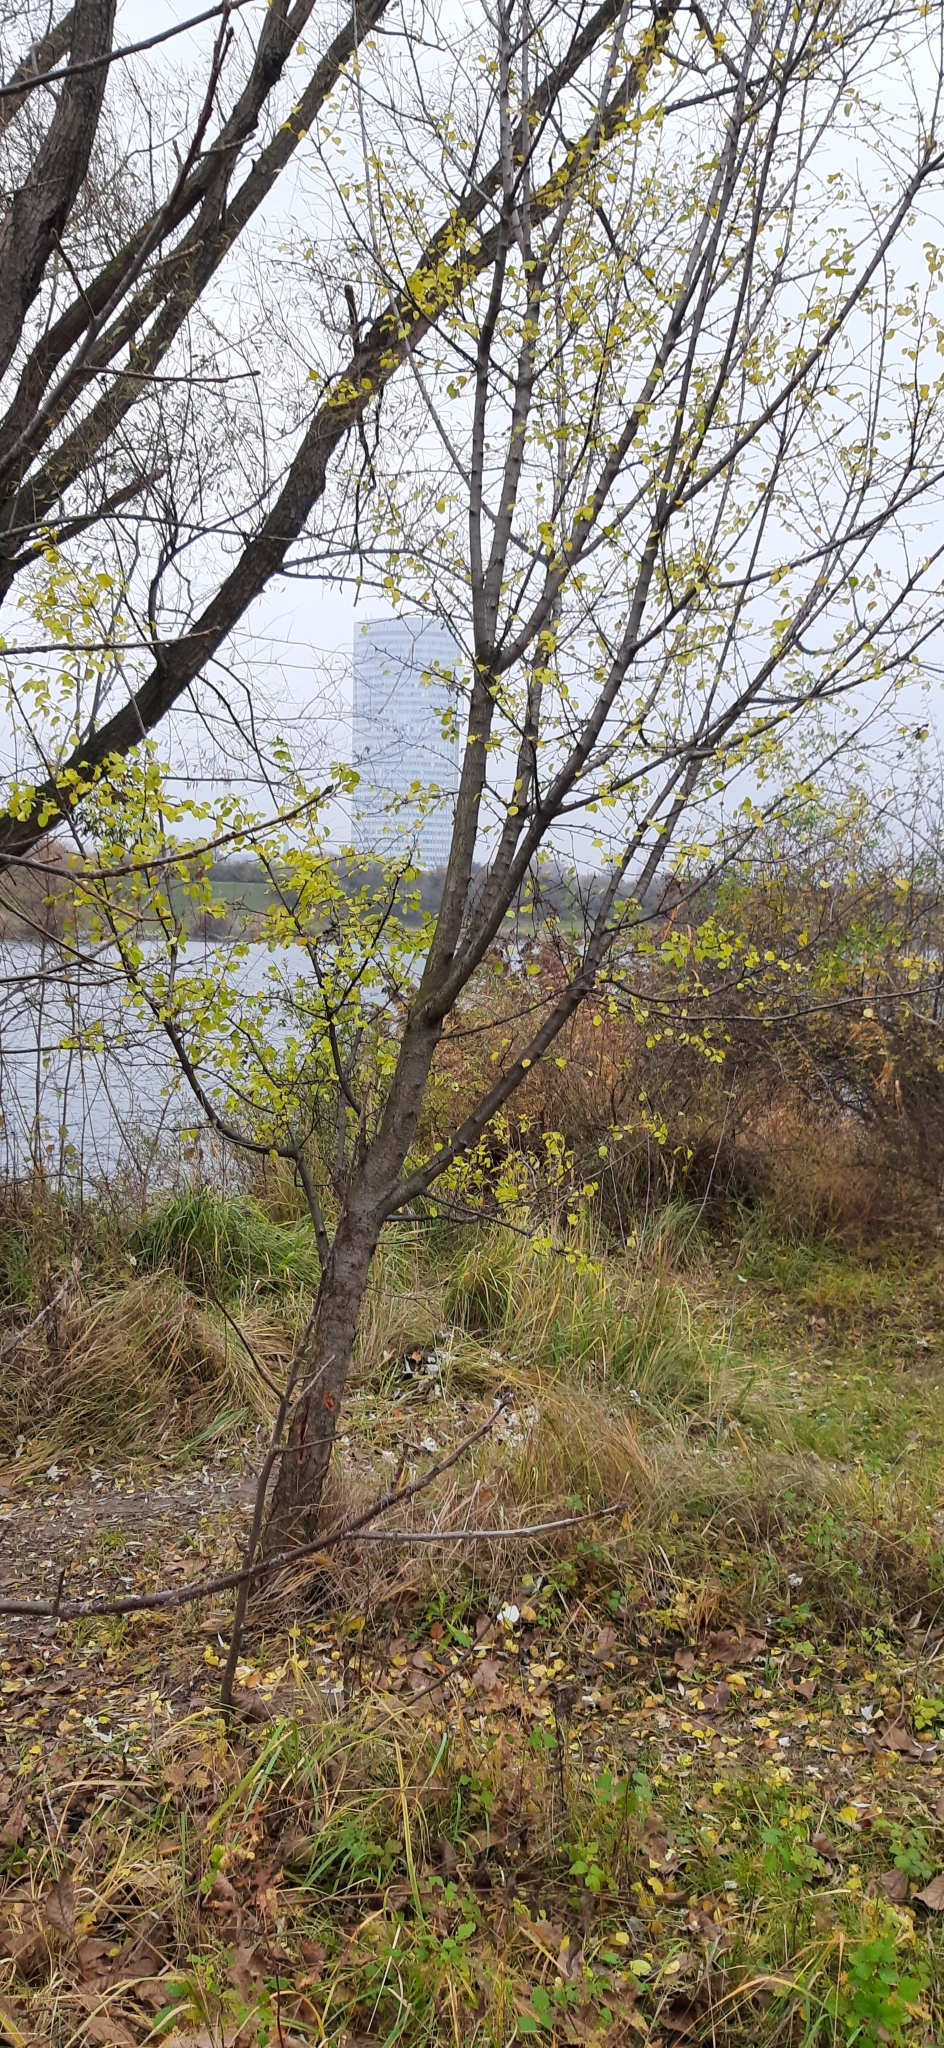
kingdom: Plantae
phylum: Tracheophyta
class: Magnoliopsida
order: Rosales
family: Rosaceae
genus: Prunus
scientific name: Prunus mahaleb
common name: Mahaleb cherry
